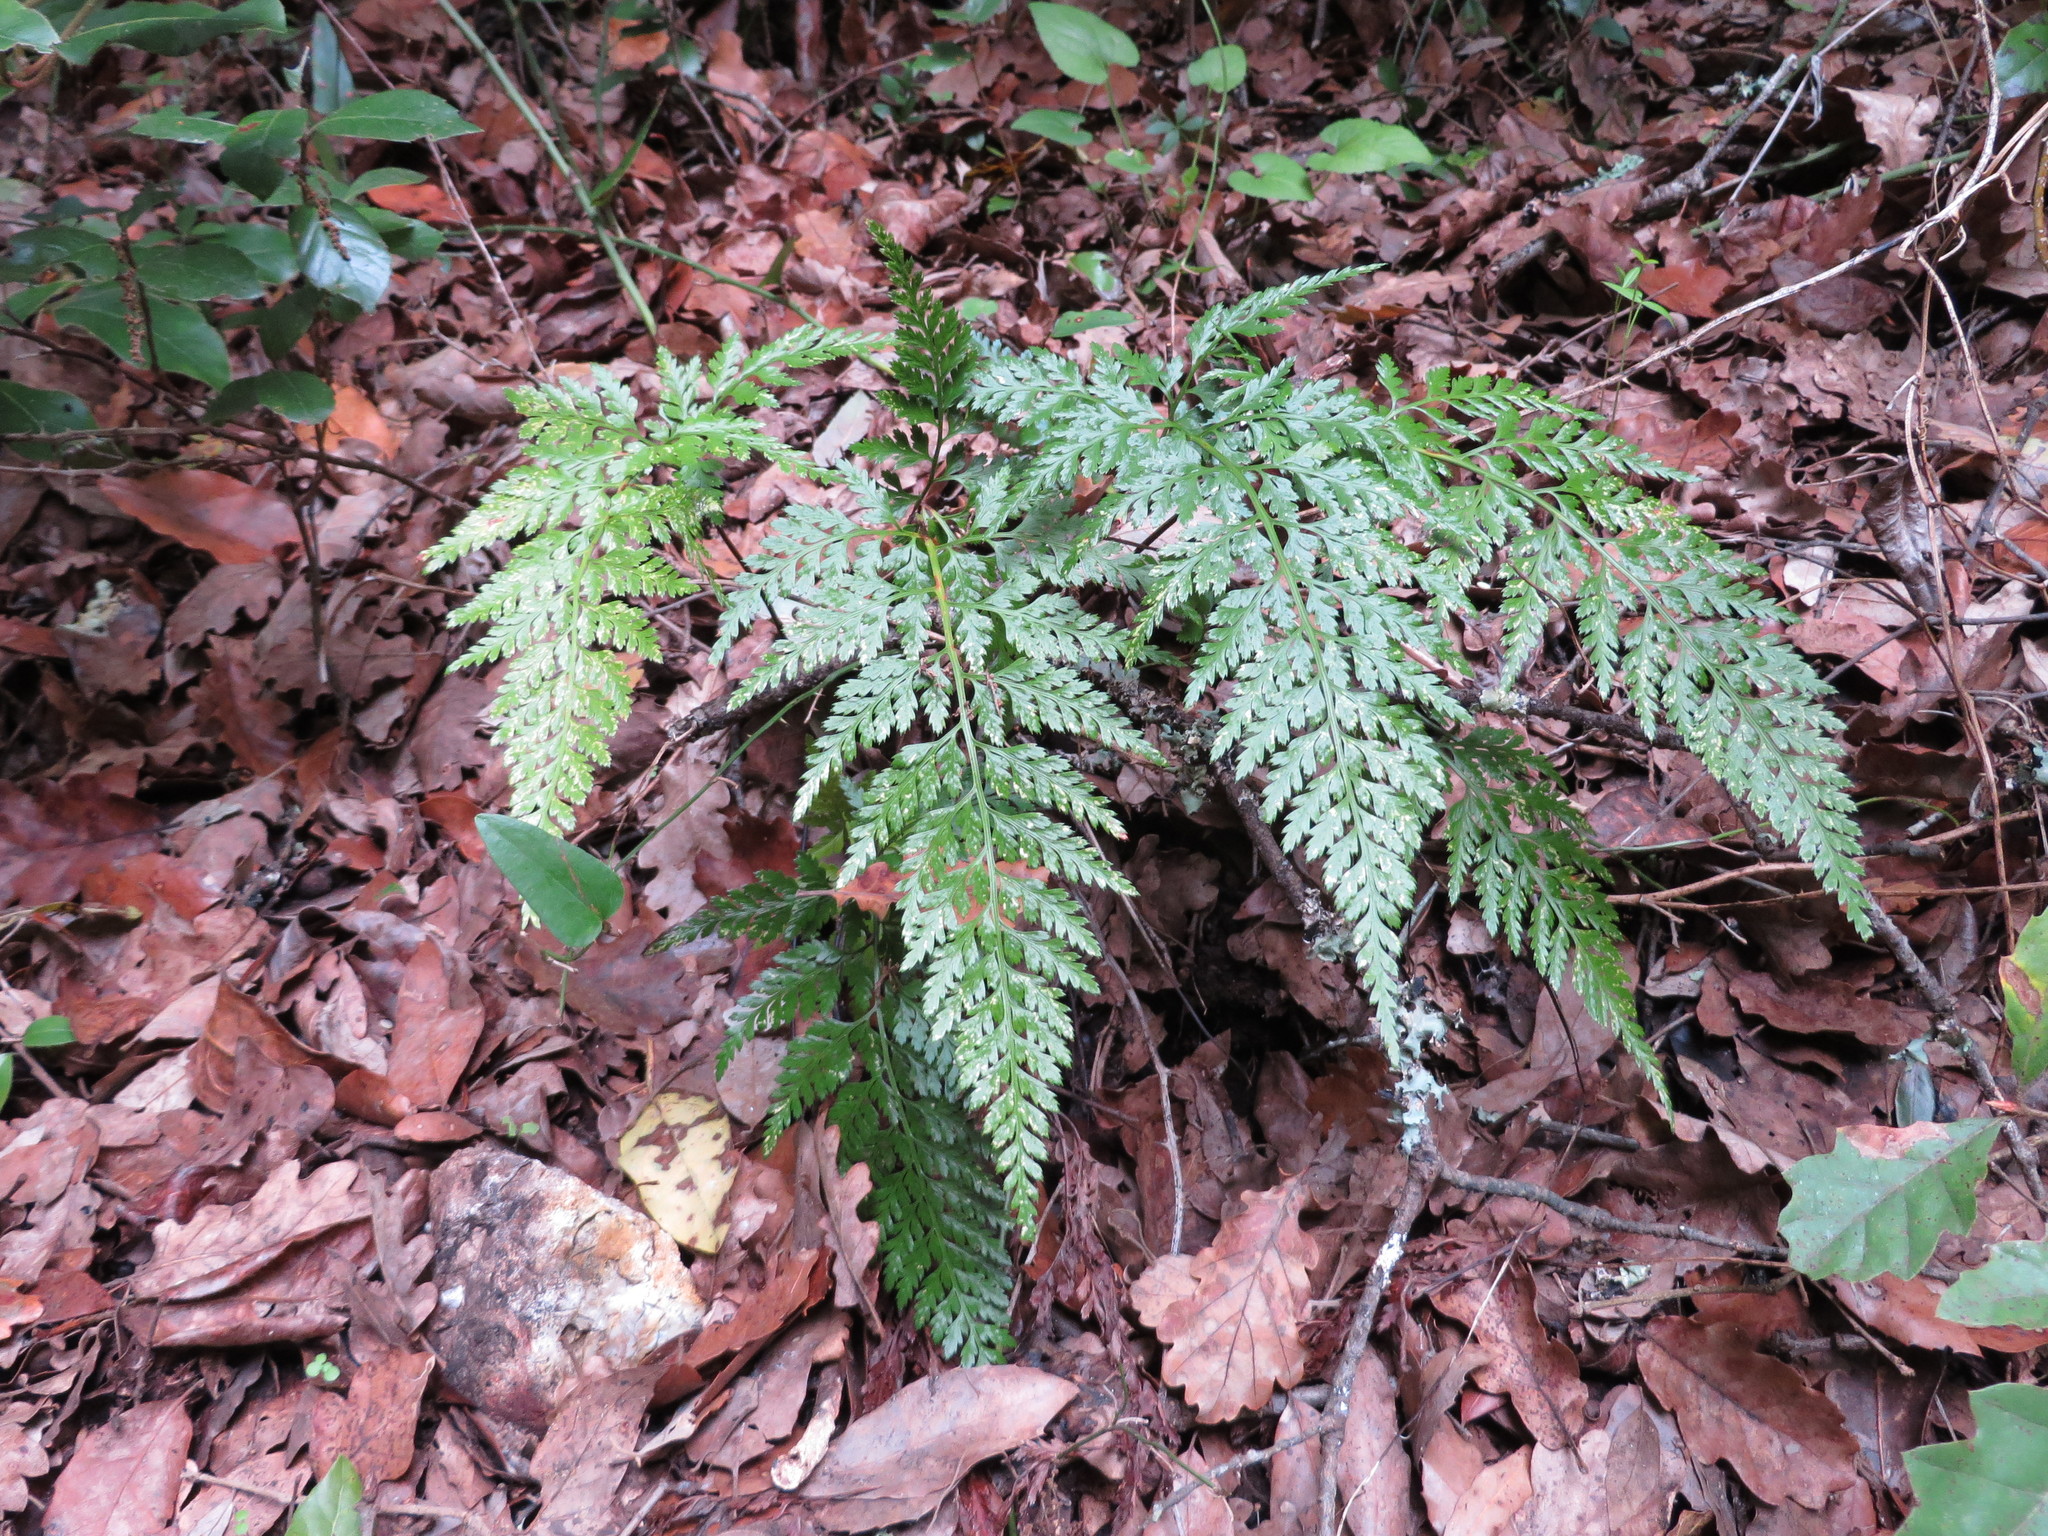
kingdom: Plantae
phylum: Tracheophyta
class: Polypodiopsida
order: Polypodiales
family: Aspleniaceae
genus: Asplenium
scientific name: Asplenium onopteris
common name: Irish spleenwort
